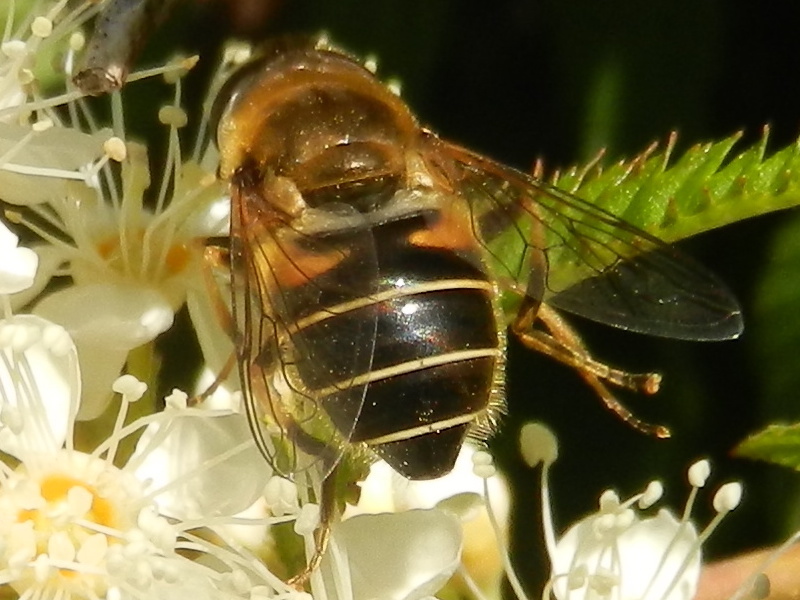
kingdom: Animalia
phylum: Arthropoda
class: Insecta
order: Diptera
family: Syrphidae
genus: Eristalis
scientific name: Eristalis nemorum
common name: Orange-spined drone fly
